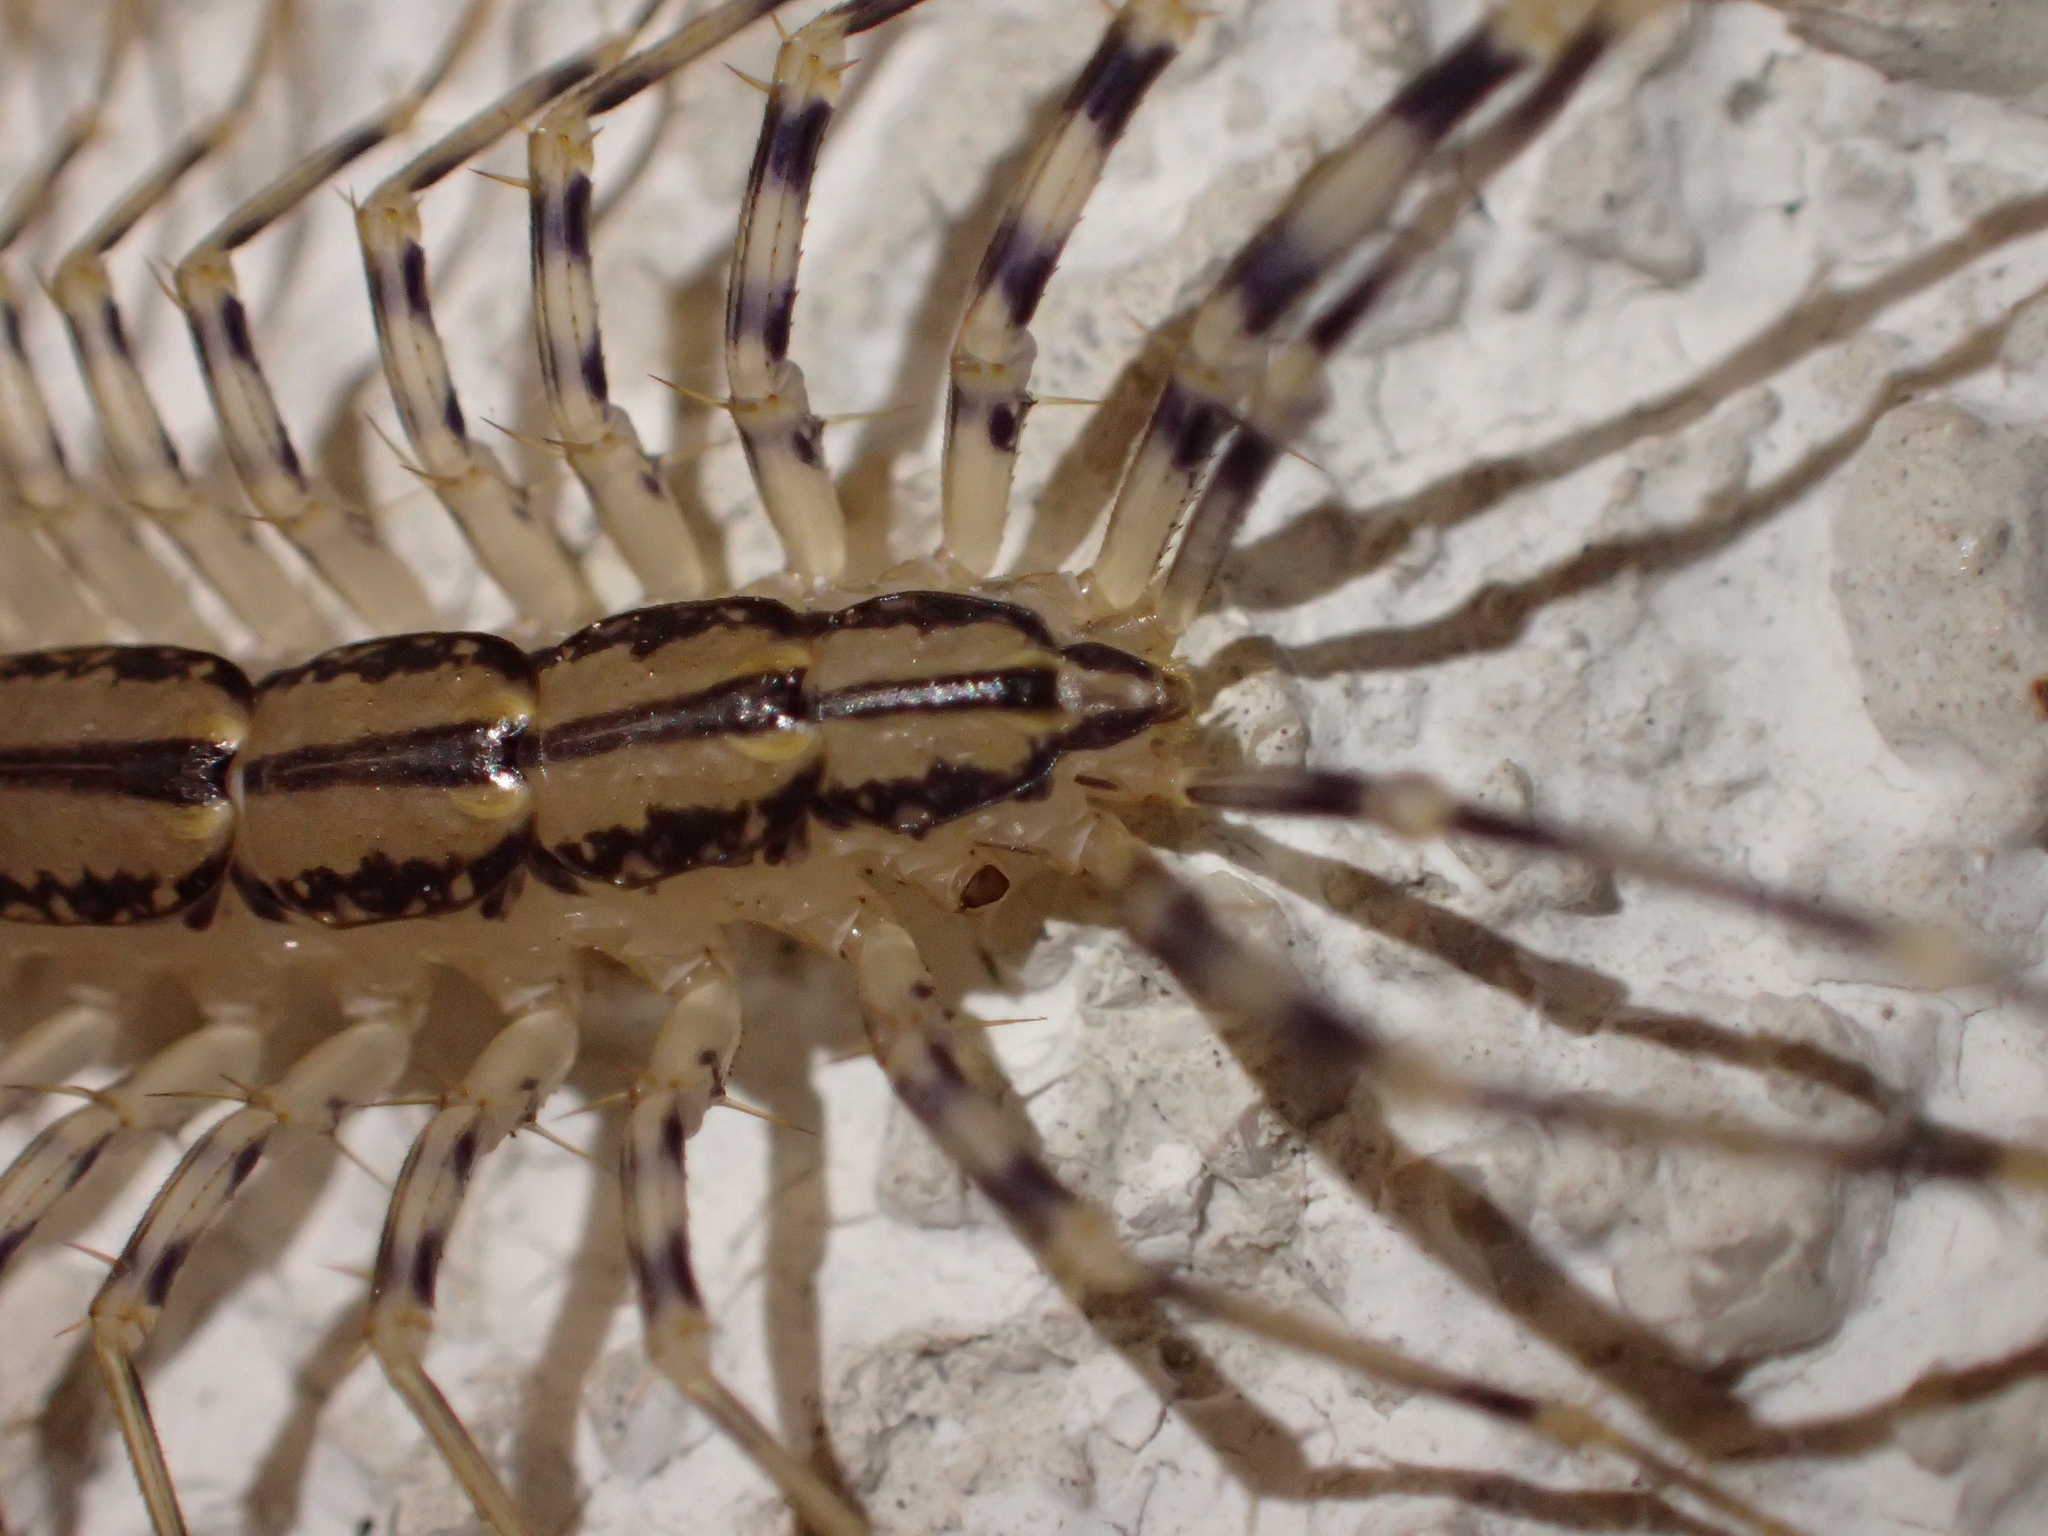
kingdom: Animalia
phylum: Arthropoda
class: Chilopoda
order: Scutigeromorpha
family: Scutigeridae
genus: Scutigera
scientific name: Scutigera coleoptrata
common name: House centipede
